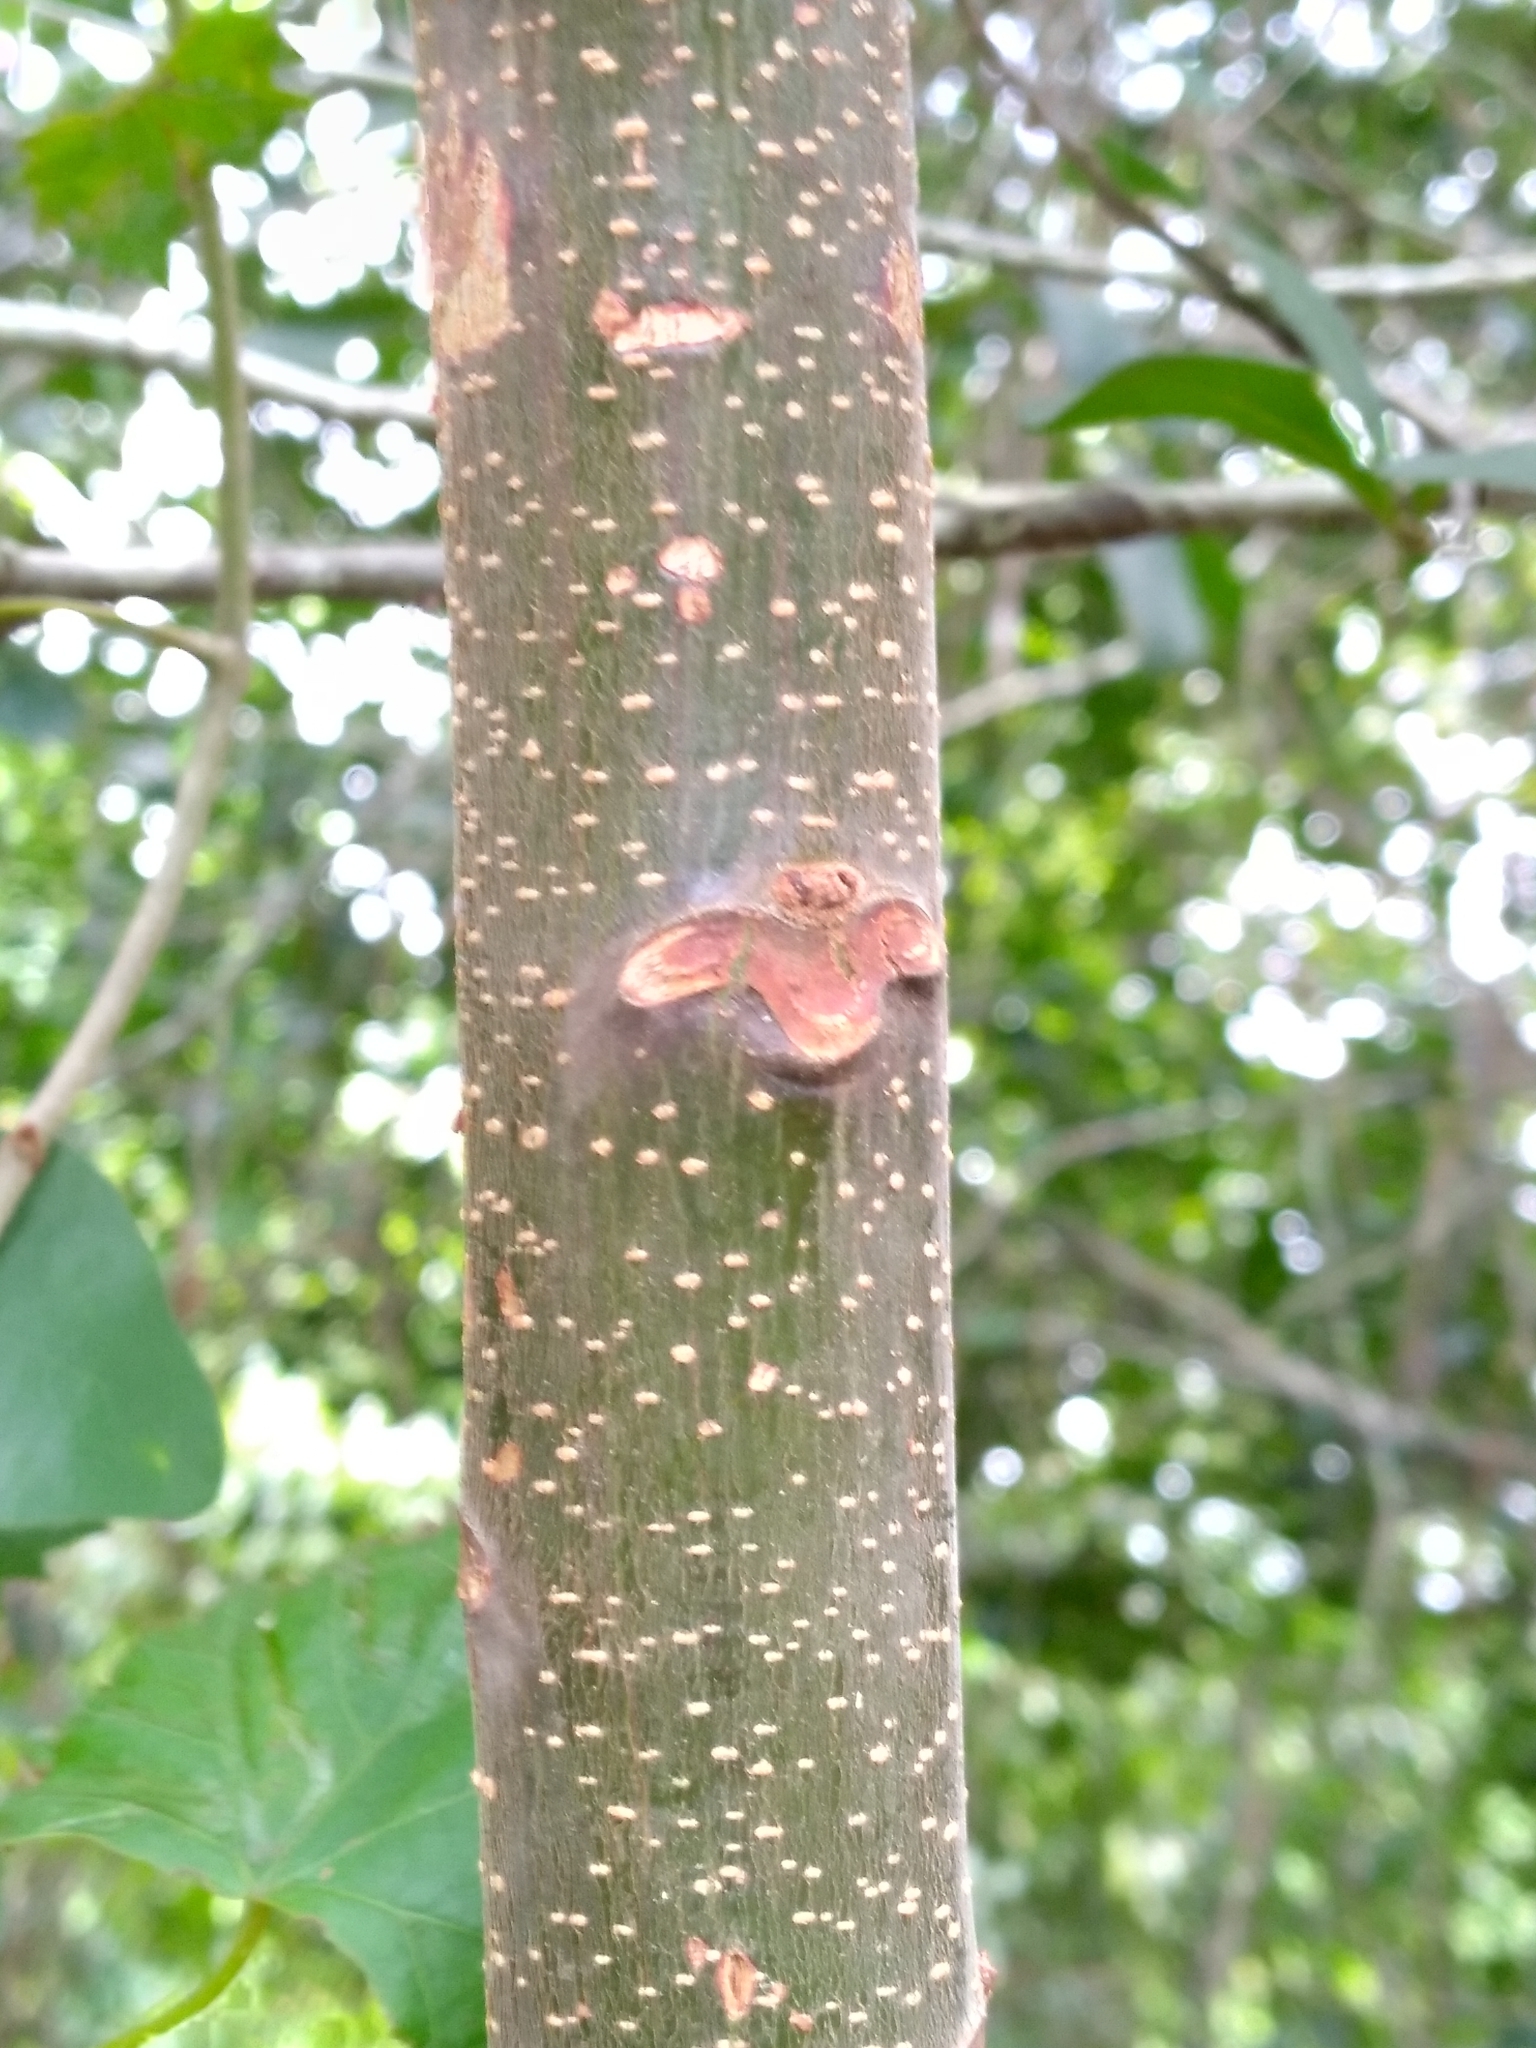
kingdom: Plantae
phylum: Tracheophyta
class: Magnoliopsida
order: Sapindales
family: Meliaceae
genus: Melia
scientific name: Melia azedarach
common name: Chinaberrytree
